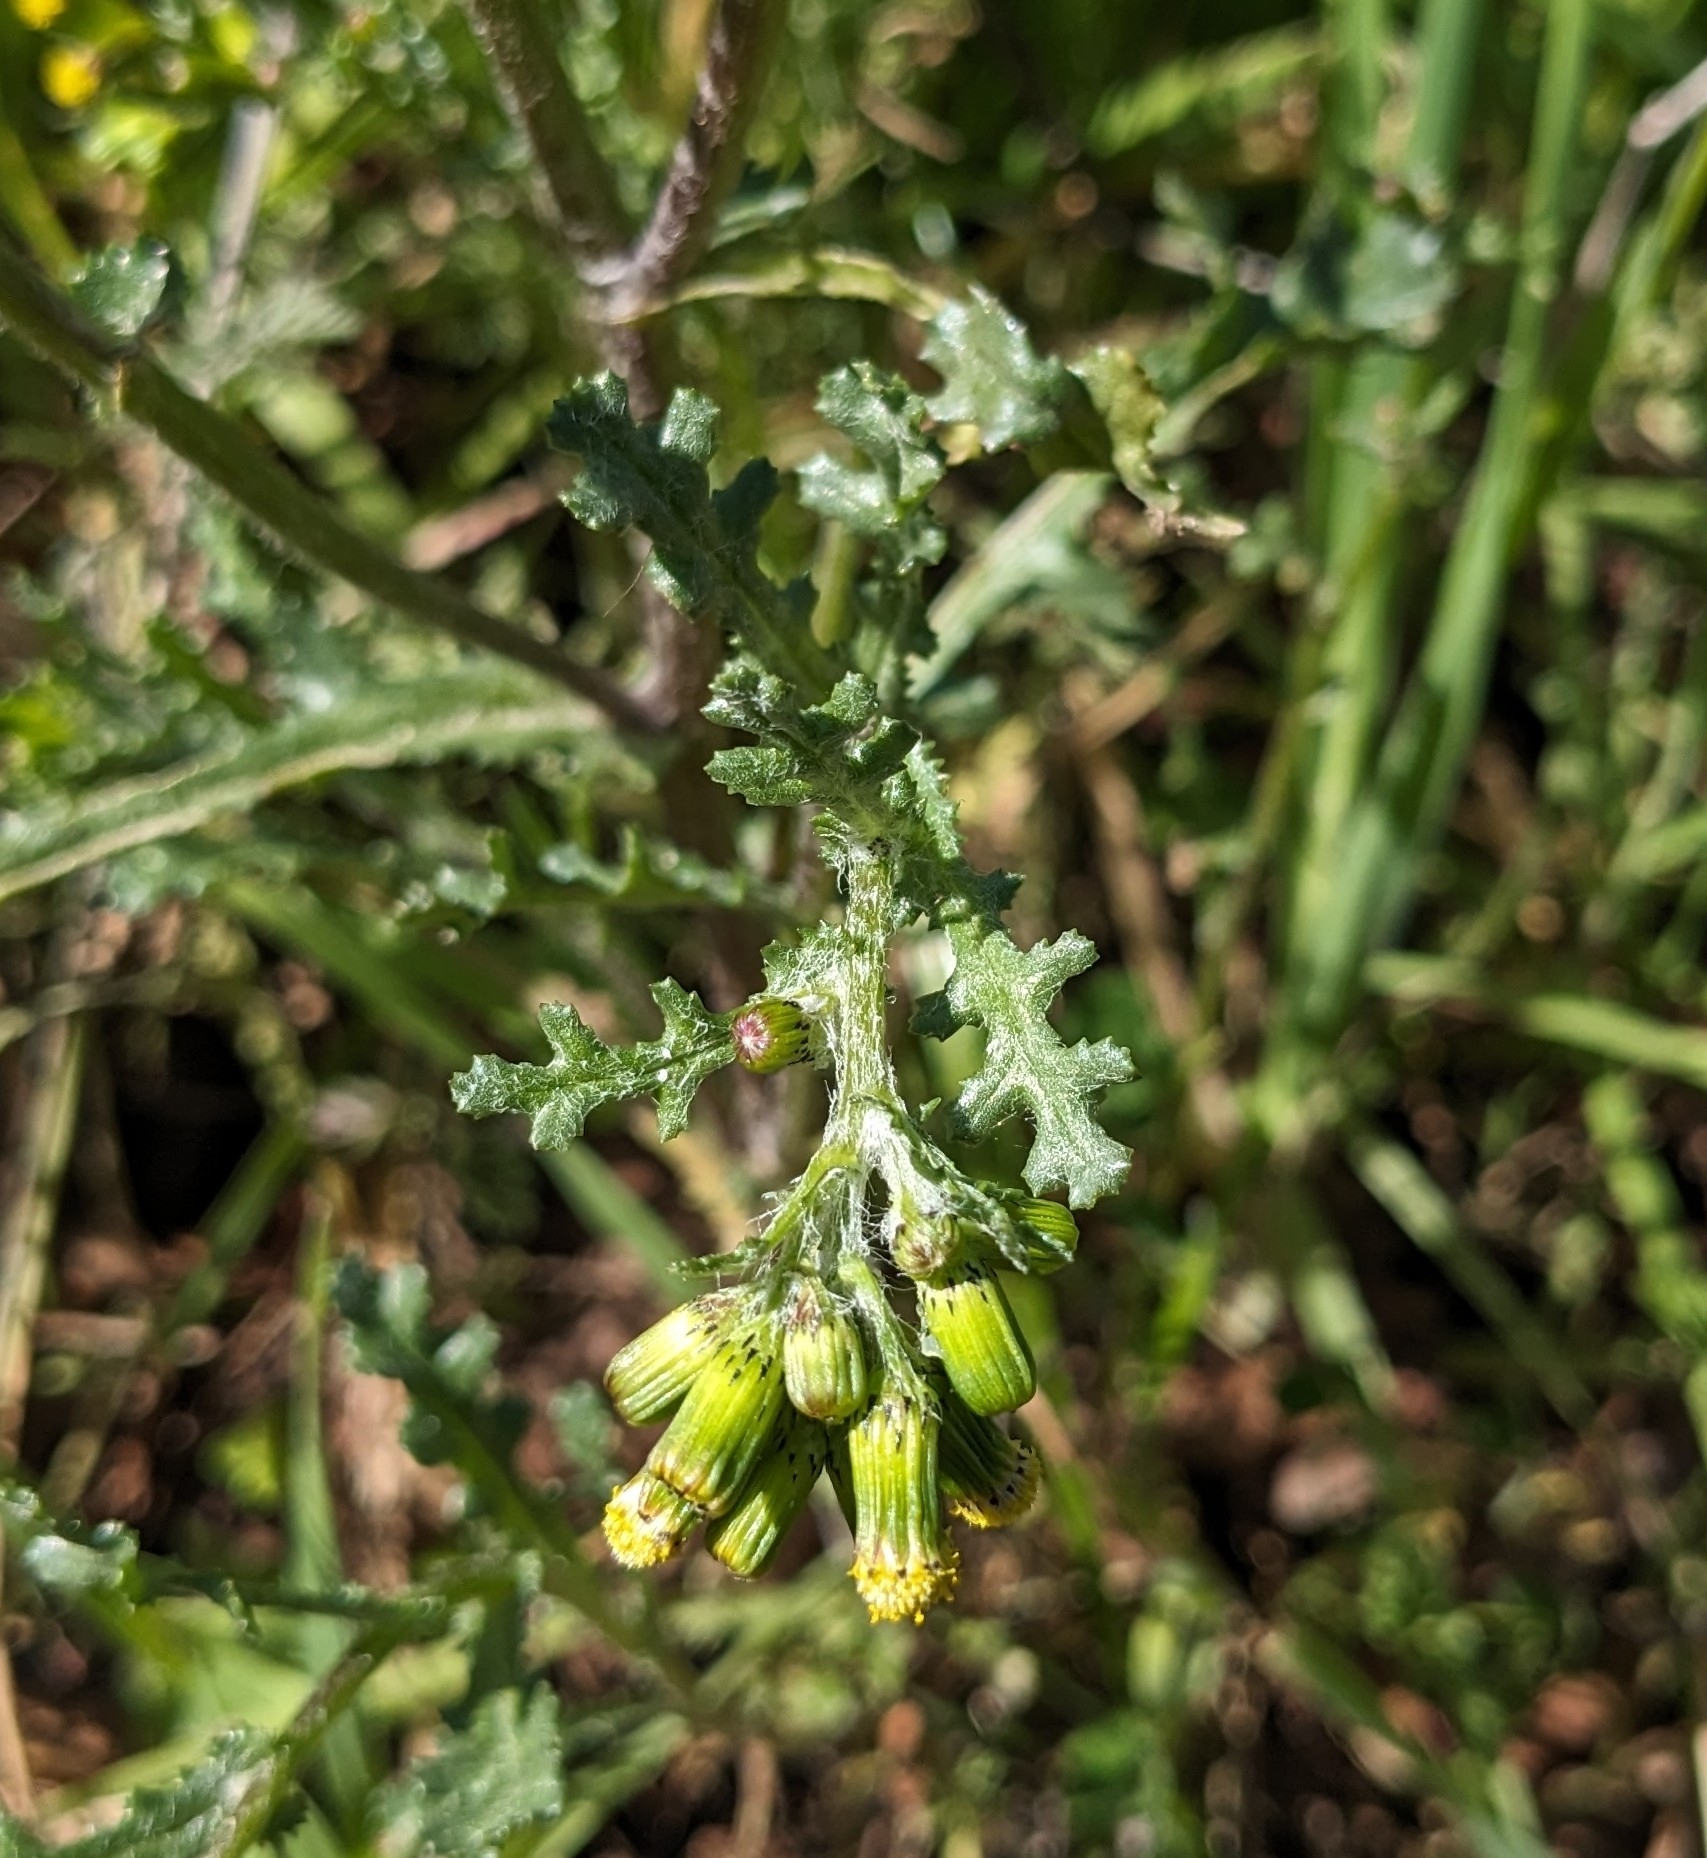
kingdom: Plantae
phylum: Tracheophyta
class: Magnoliopsida
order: Asterales
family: Asteraceae
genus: Senecio
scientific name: Senecio vulgaris
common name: Old-man-in-the-spring
